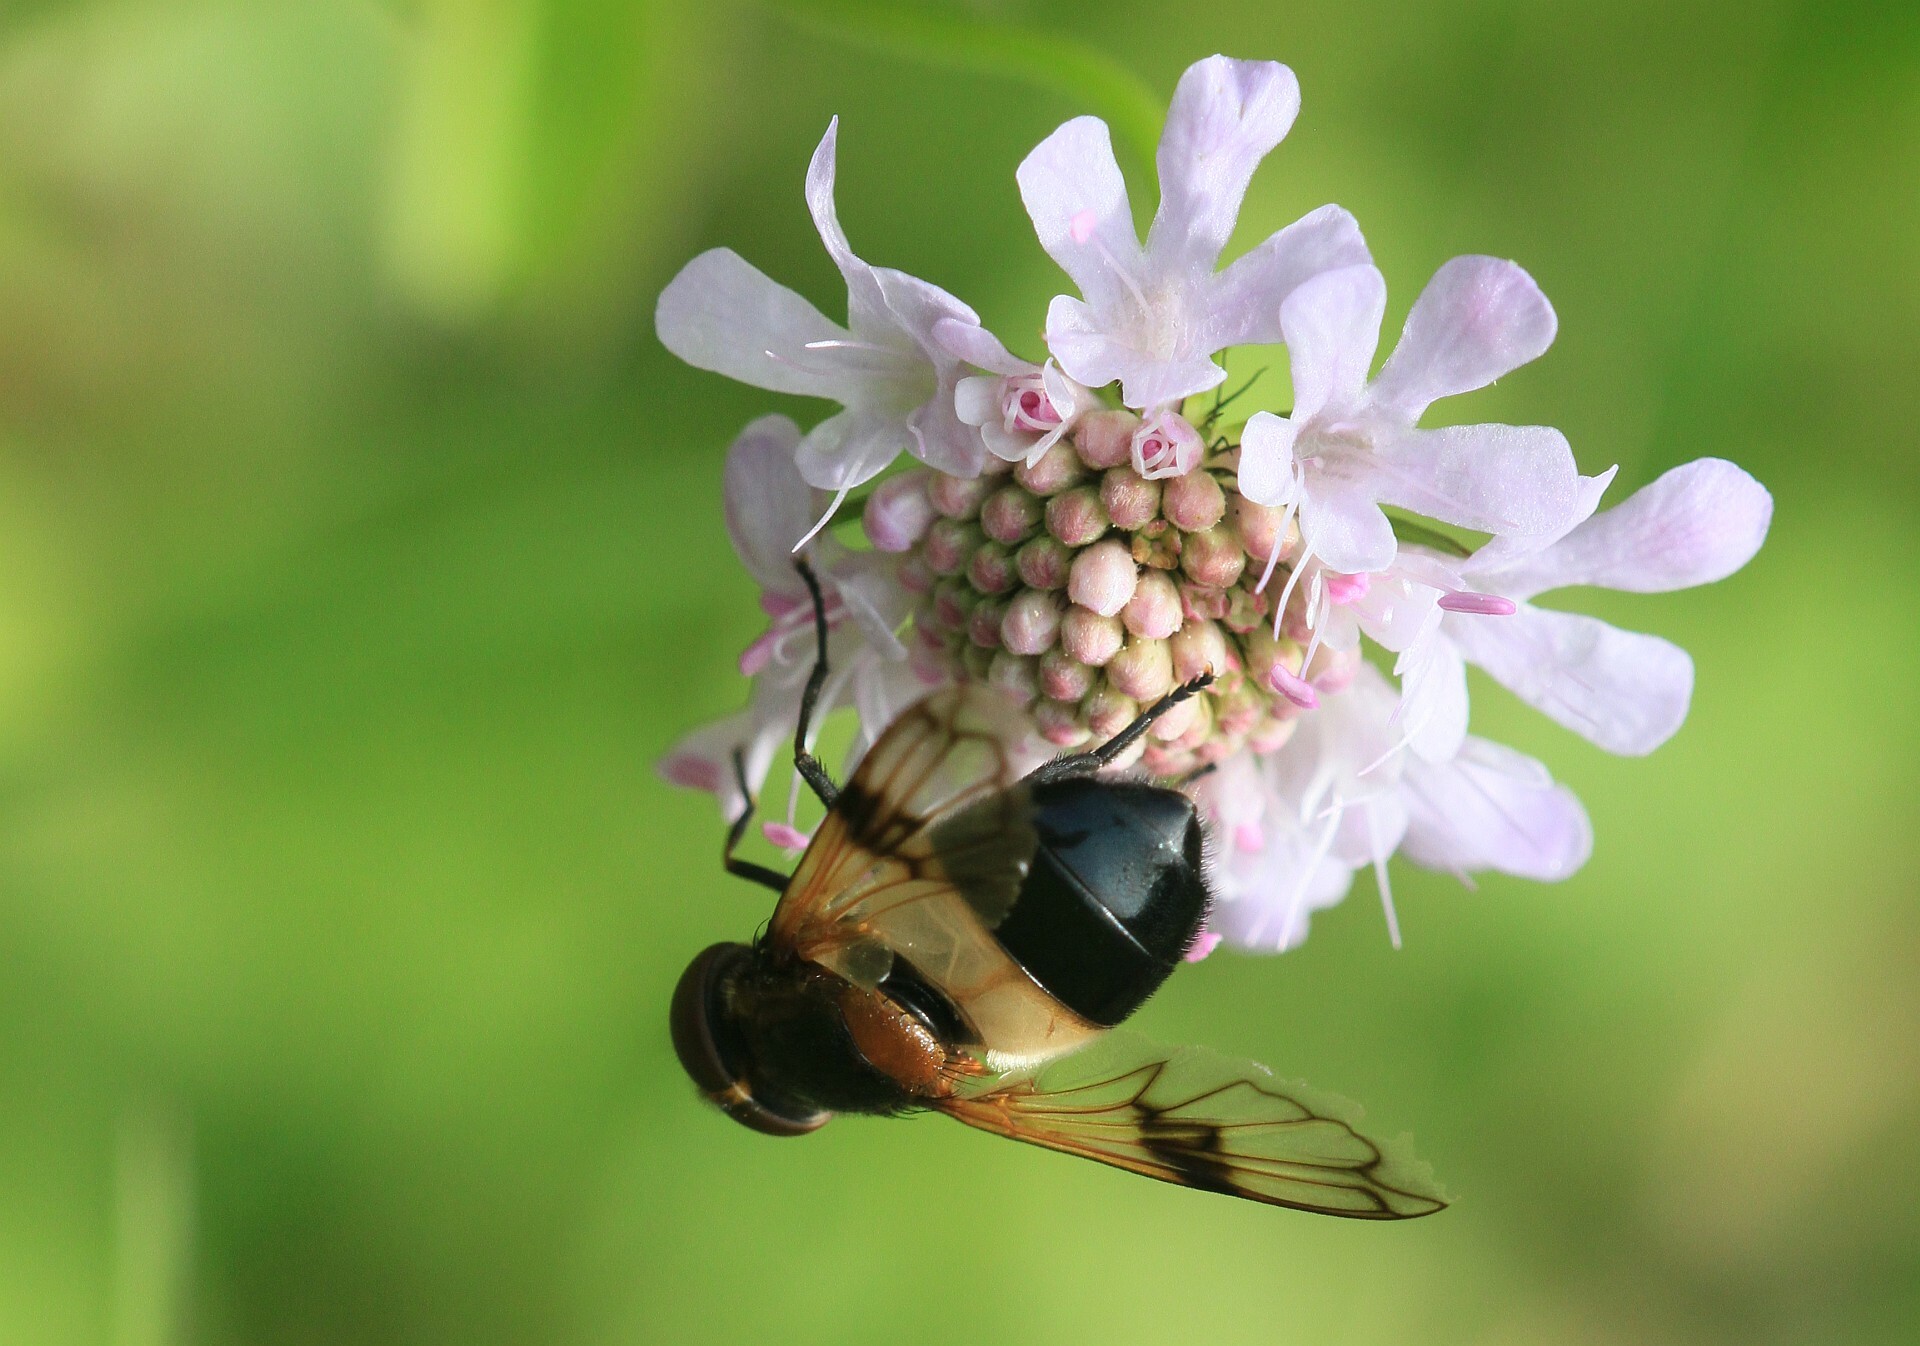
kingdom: Animalia
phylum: Arthropoda
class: Insecta
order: Diptera
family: Syrphidae
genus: Volucella
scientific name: Volucella pellucens
